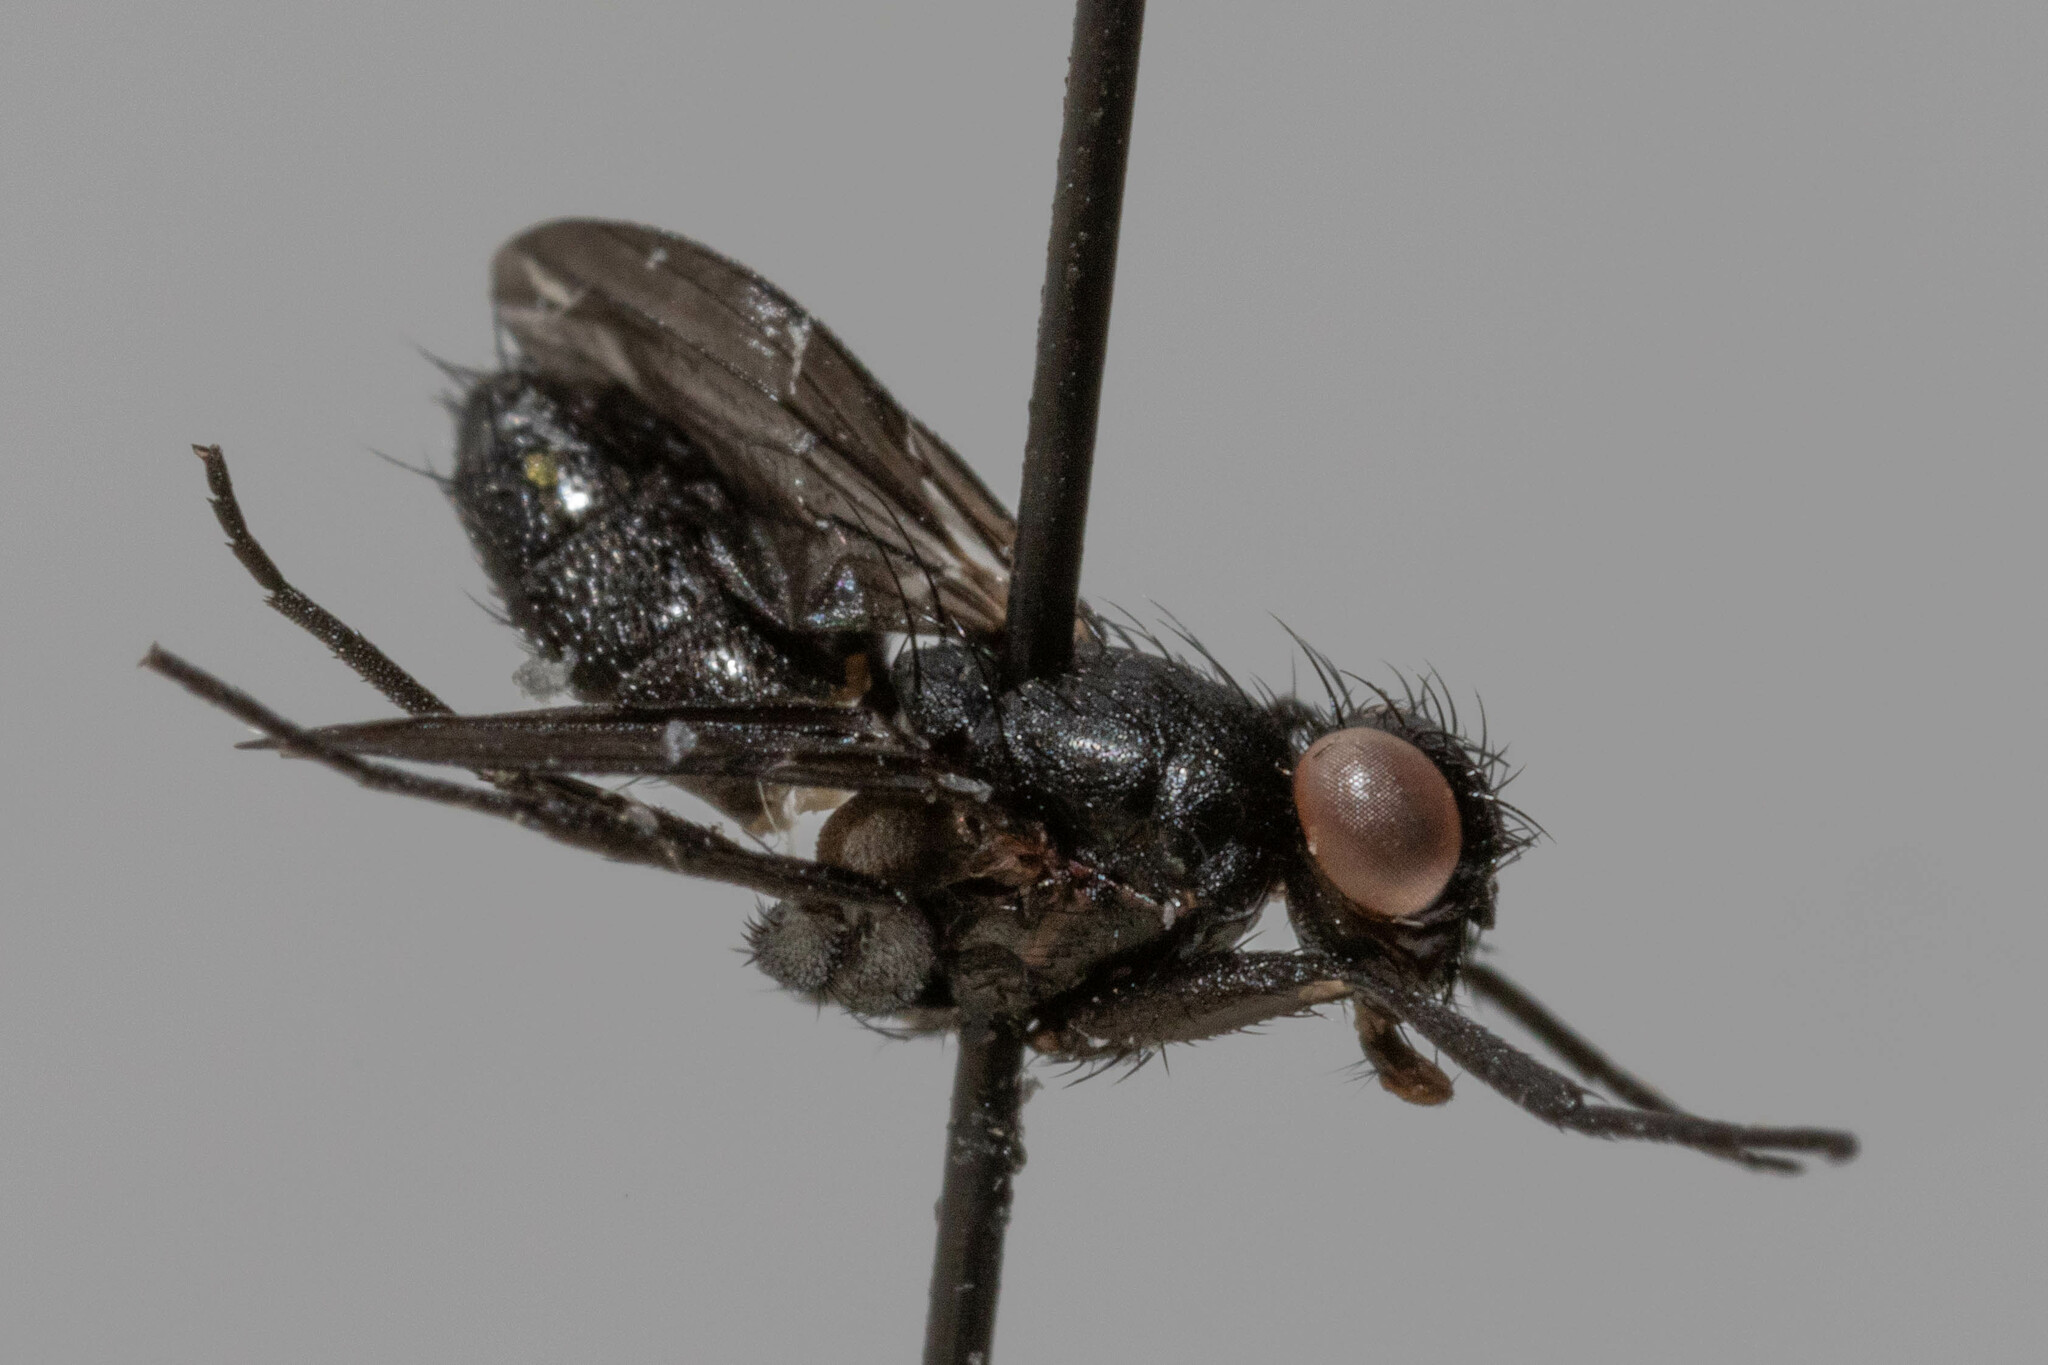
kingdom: Animalia
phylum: Arthropoda
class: Insecta
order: Diptera
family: Calliphoridae
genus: Melanophora
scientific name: Melanophora roralis
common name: Smoky-winged woodlouse-fly
